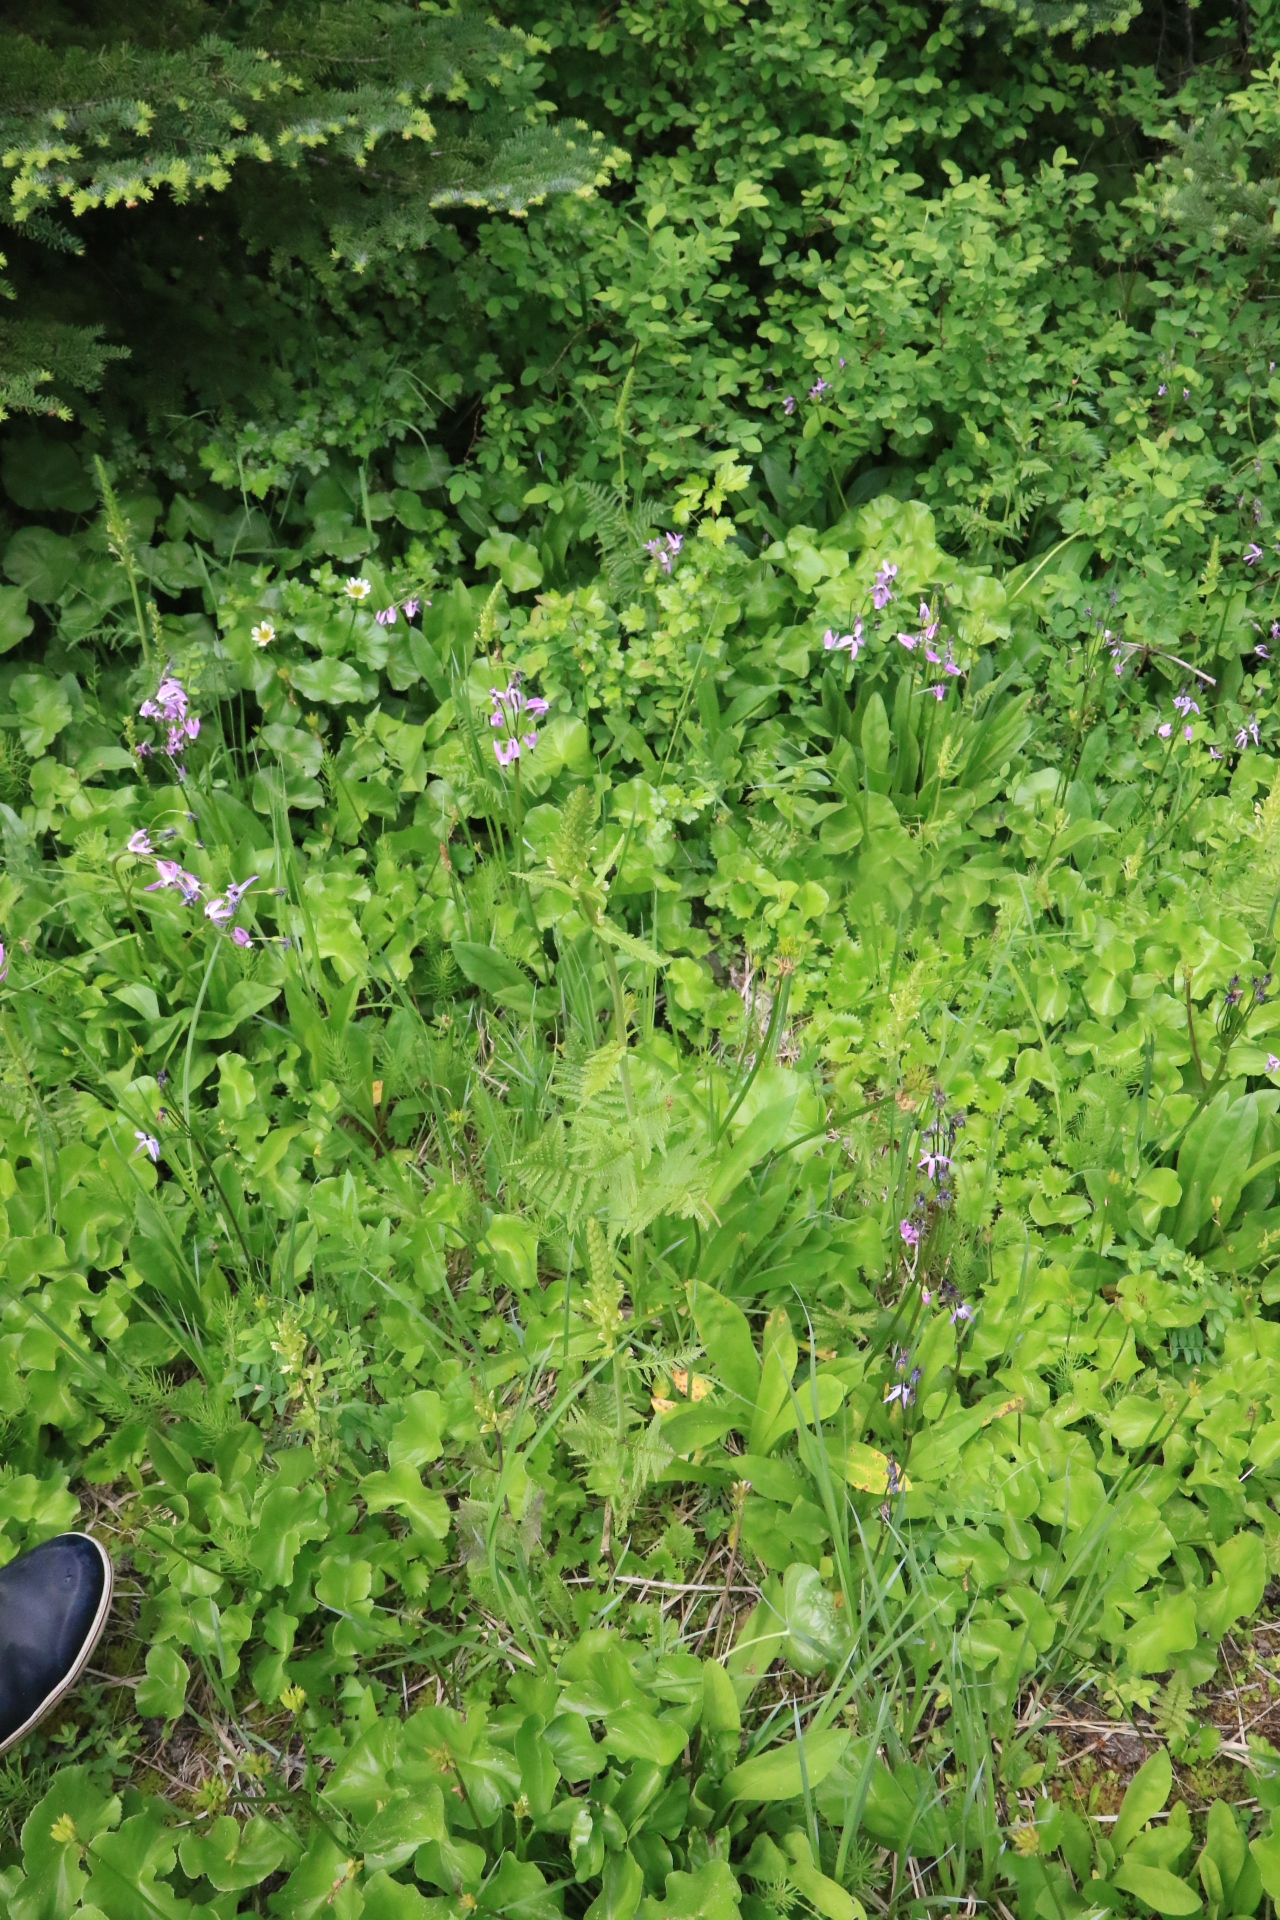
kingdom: Plantae
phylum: Tracheophyta
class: Magnoliopsida
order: Lamiales
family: Orobanchaceae
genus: Pedicularis
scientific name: Pedicularis bracteosa
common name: Bracted lousewort
